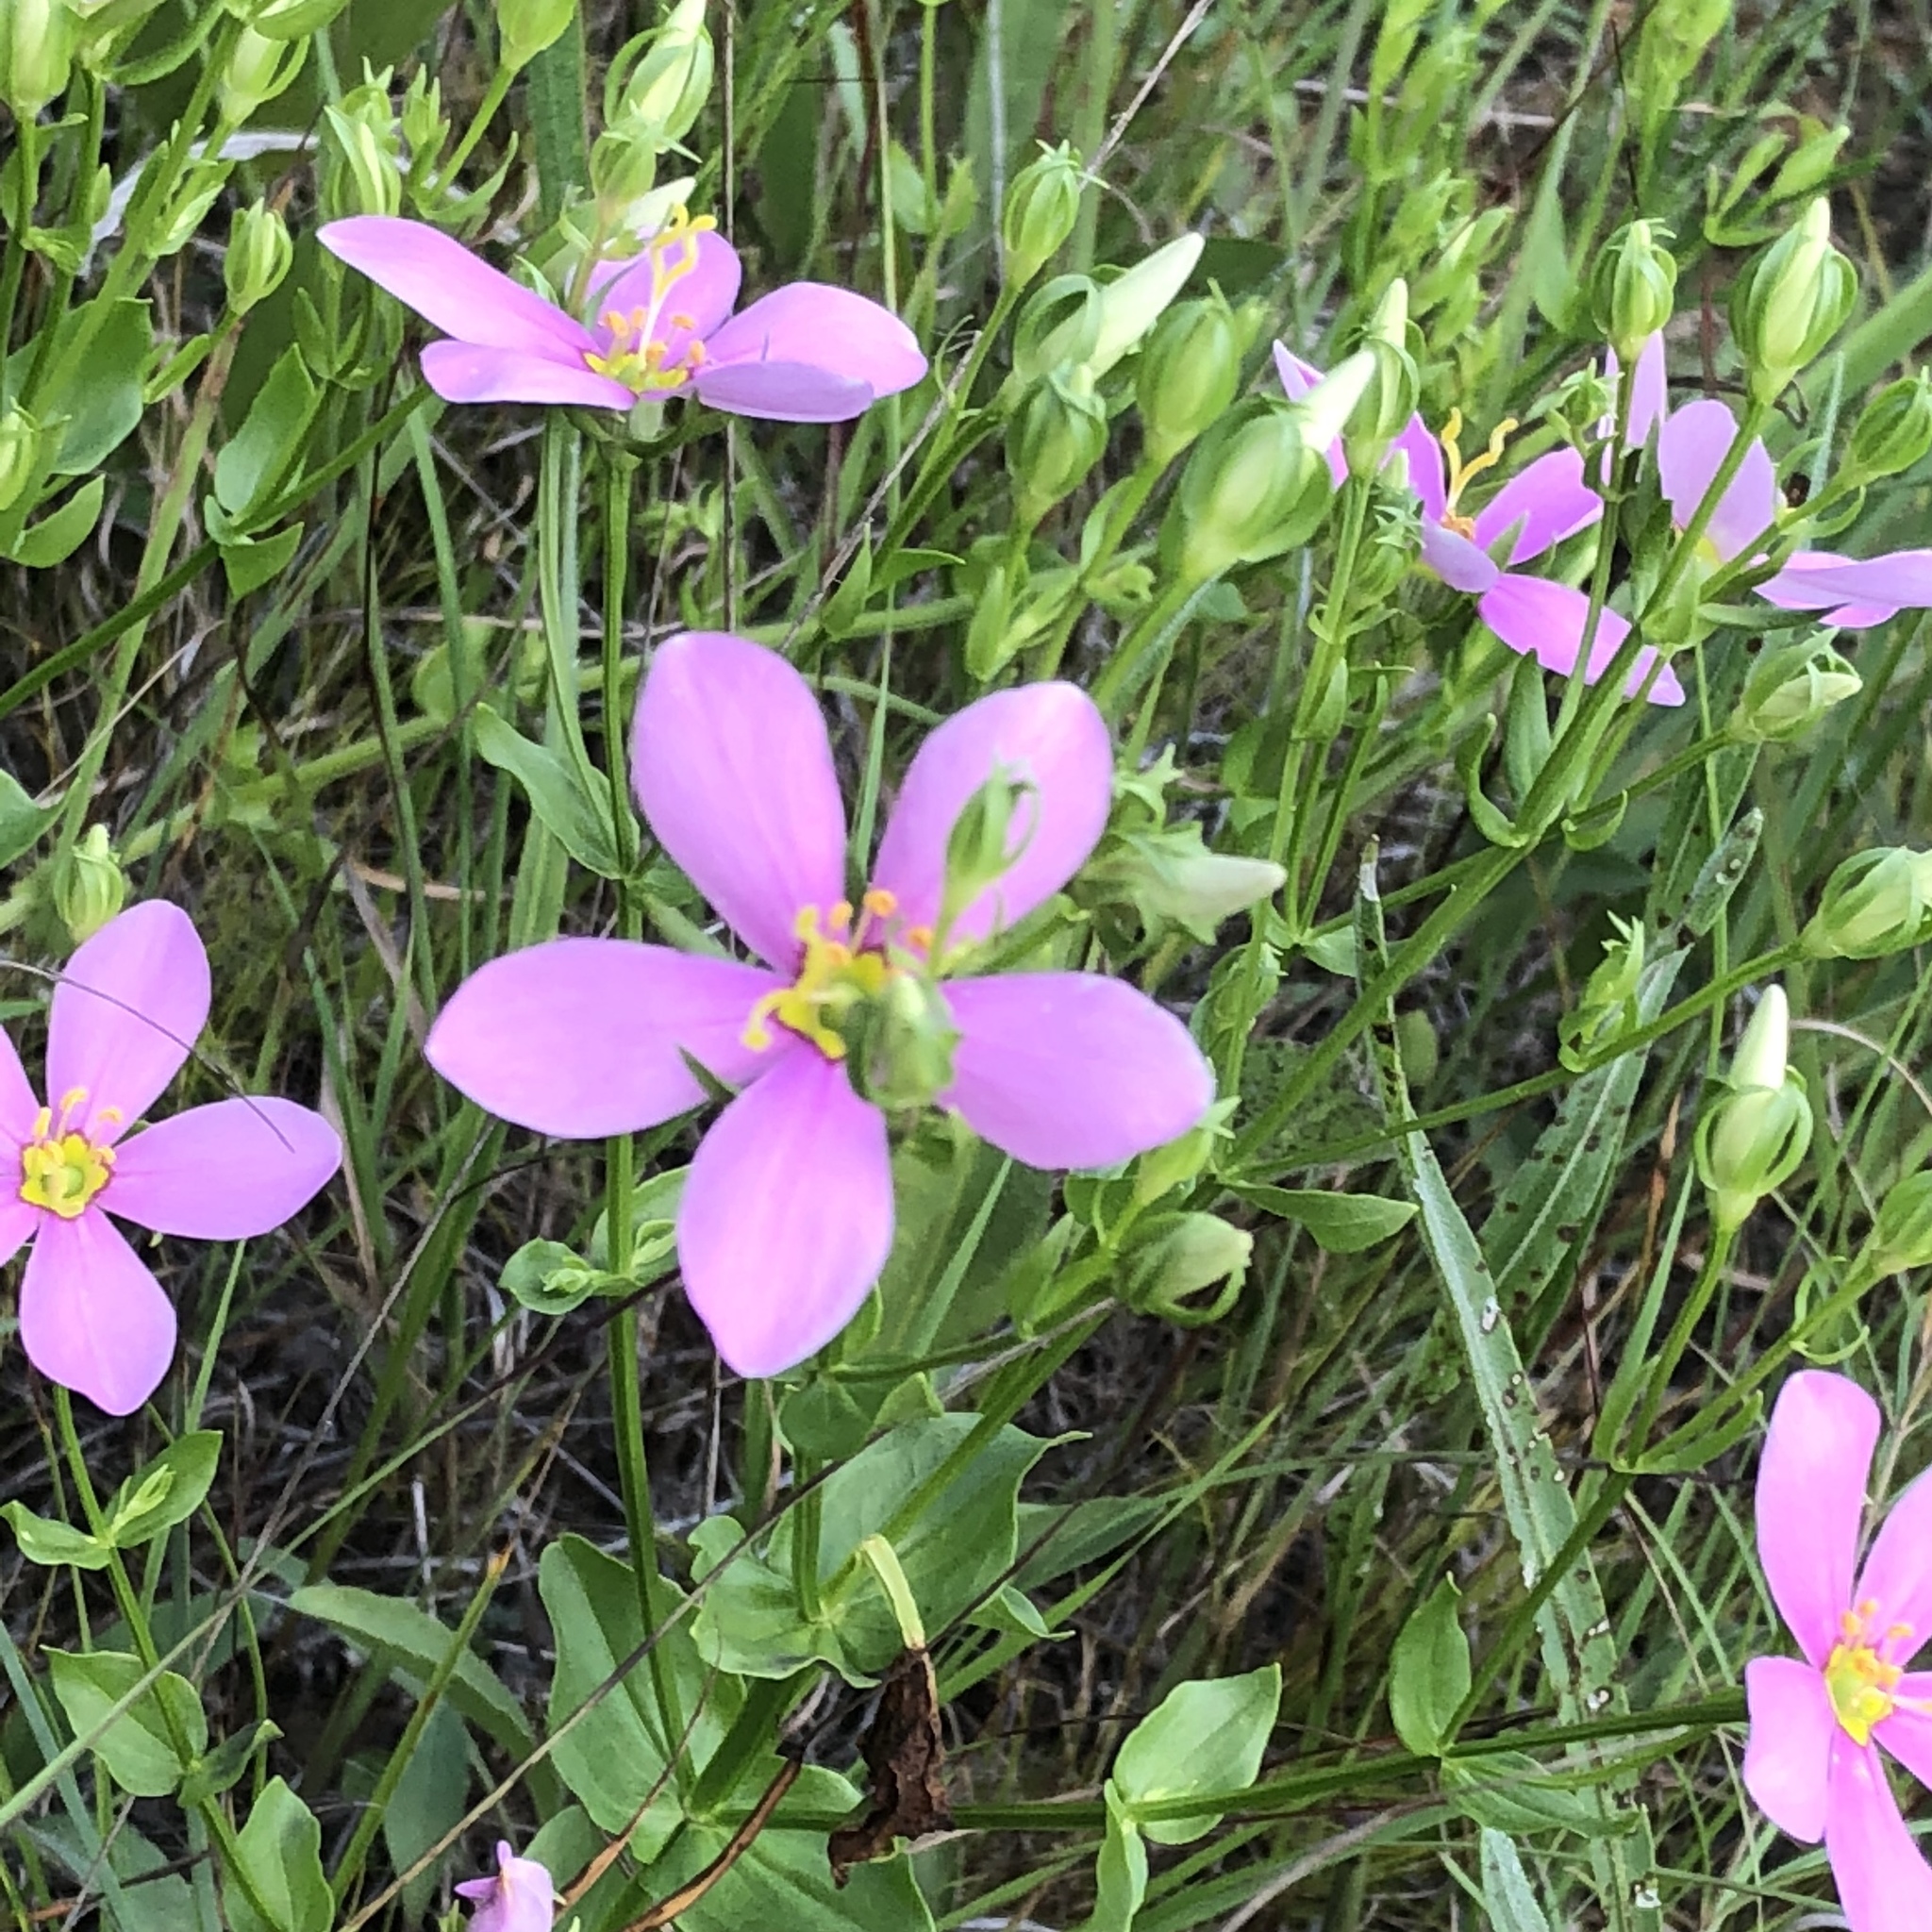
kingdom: Plantae
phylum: Tracheophyta
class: Magnoliopsida
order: Gentianales
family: Gentianaceae
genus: Sabatia
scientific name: Sabatia angularis
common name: Rose-pink
